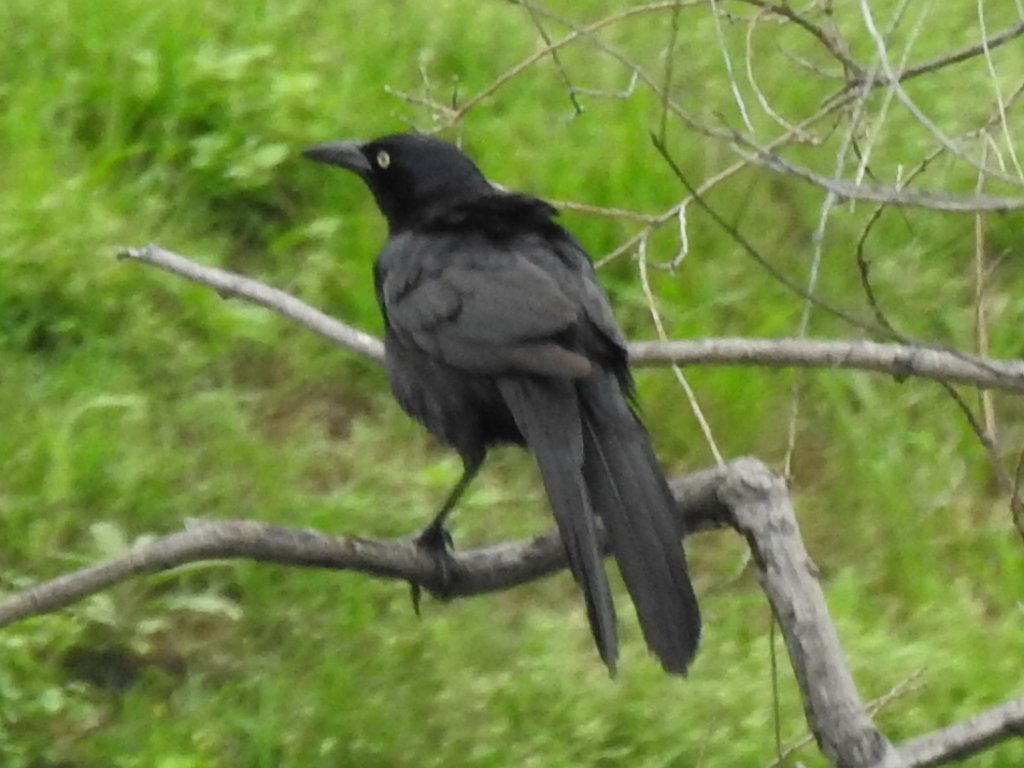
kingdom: Animalia
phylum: Chordata
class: Aves
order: Passeriformes
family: Icteridae
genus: Quiscalus
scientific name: Quiscalus mexicanus
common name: Great-tailed grackle
